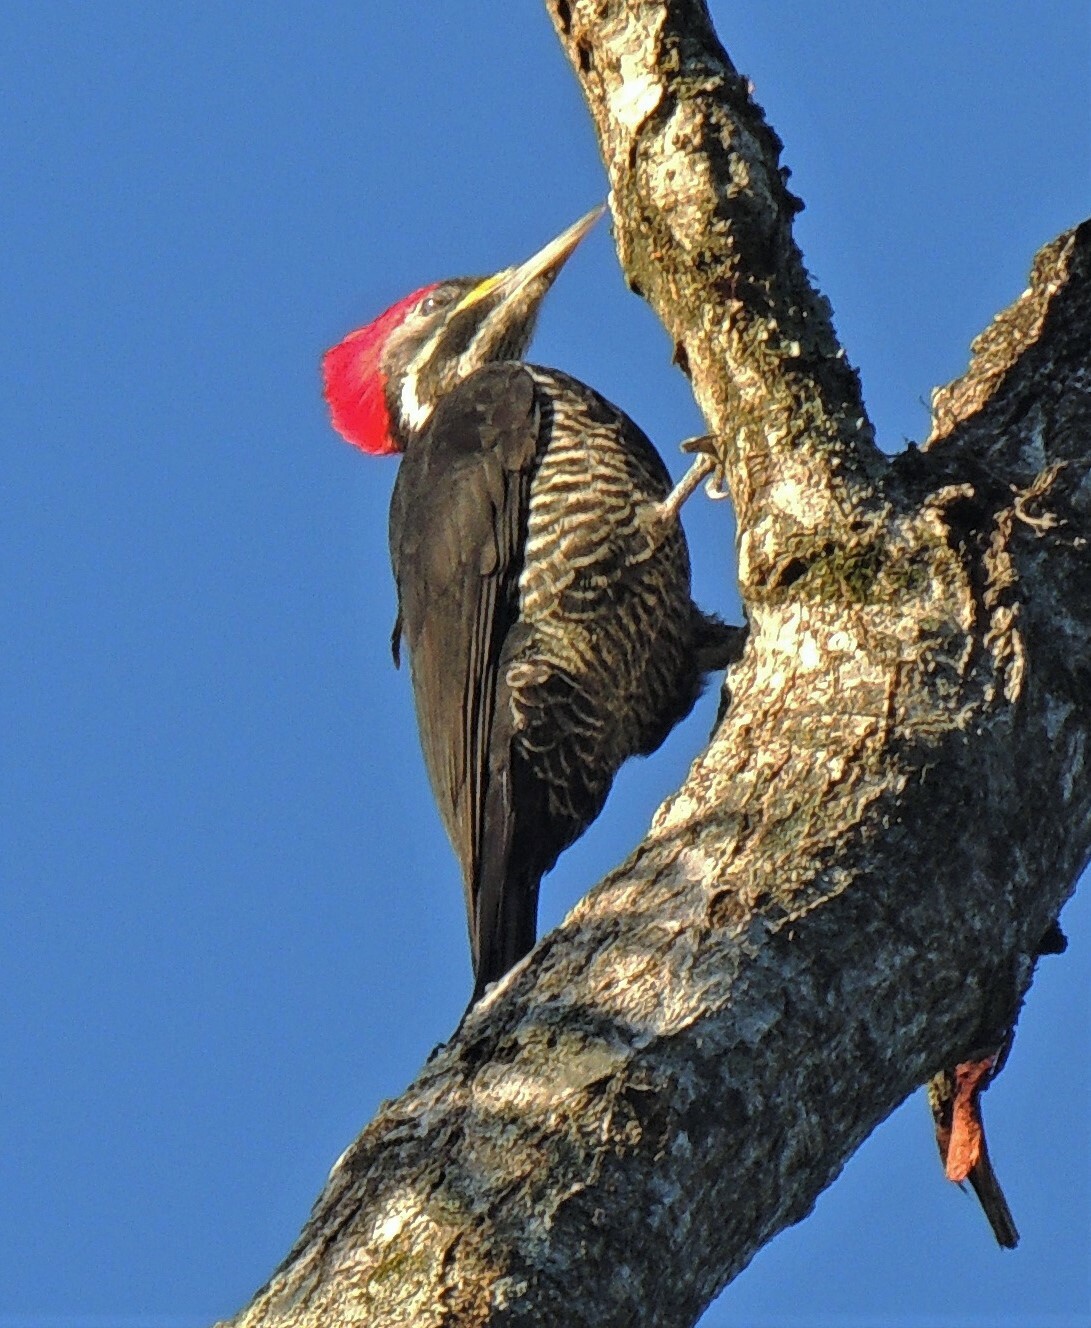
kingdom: Animalia
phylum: Chordata
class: Aves
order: Piciformes
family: Picidae
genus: Dryocopus
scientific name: Dryocopus lineatus
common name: Lineated woodpecker
